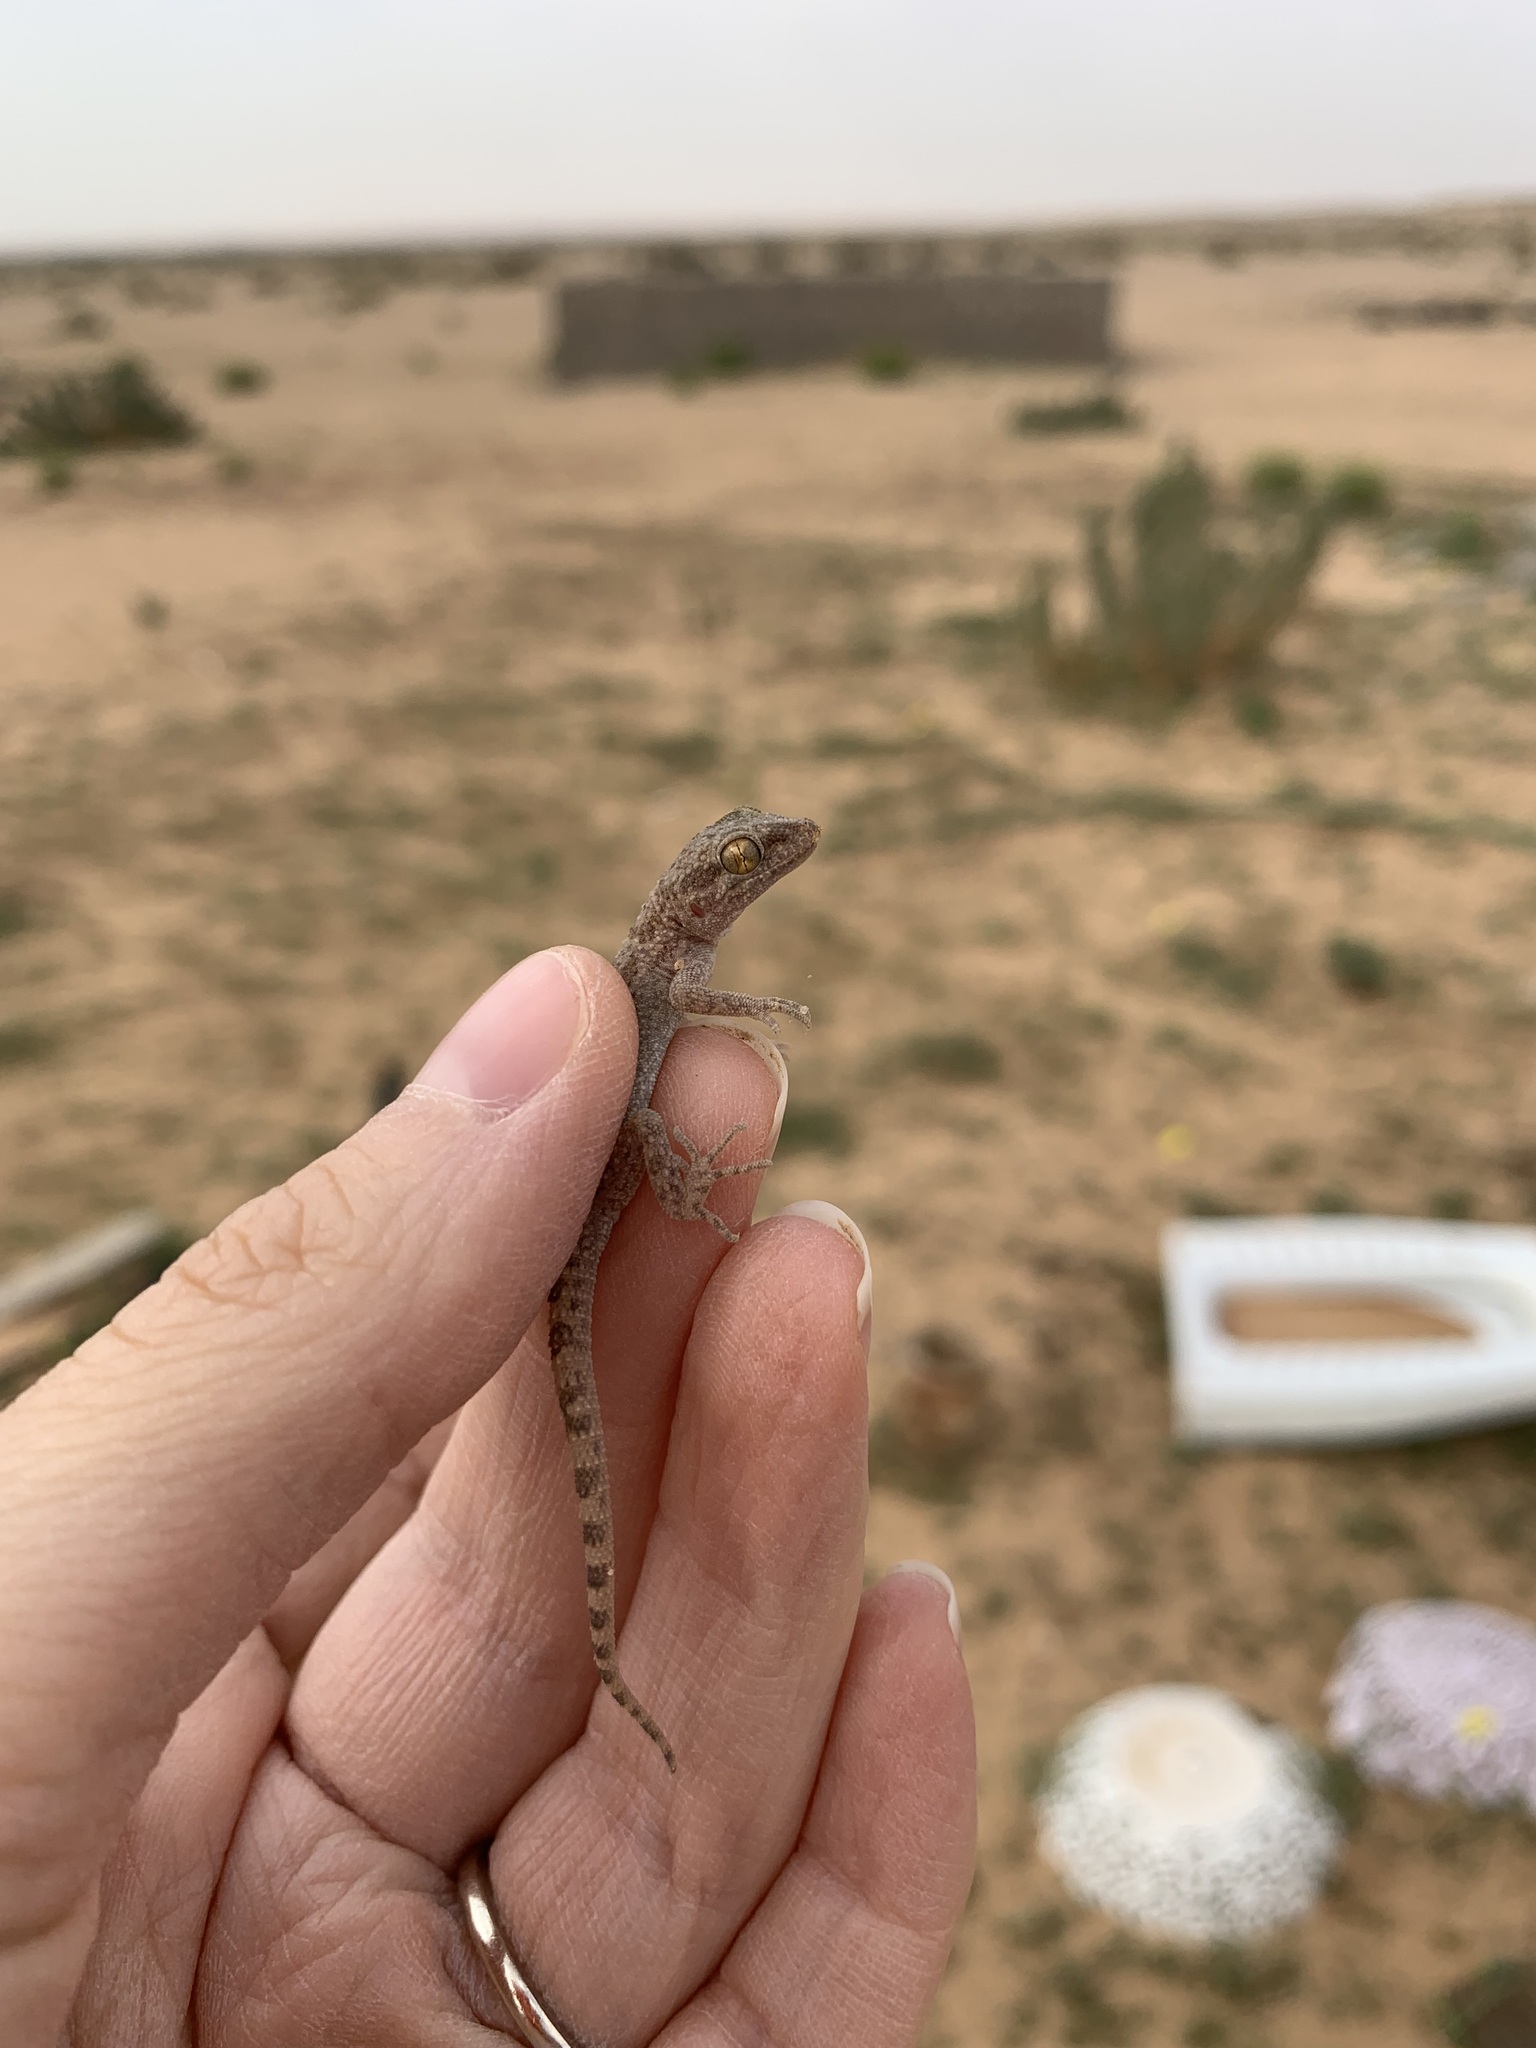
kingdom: Animalia
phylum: Chordata
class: Squamata
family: Gekkonidae
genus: Bunopus
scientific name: Bunopus tuberculatus
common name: Southern tuberculated gecko
